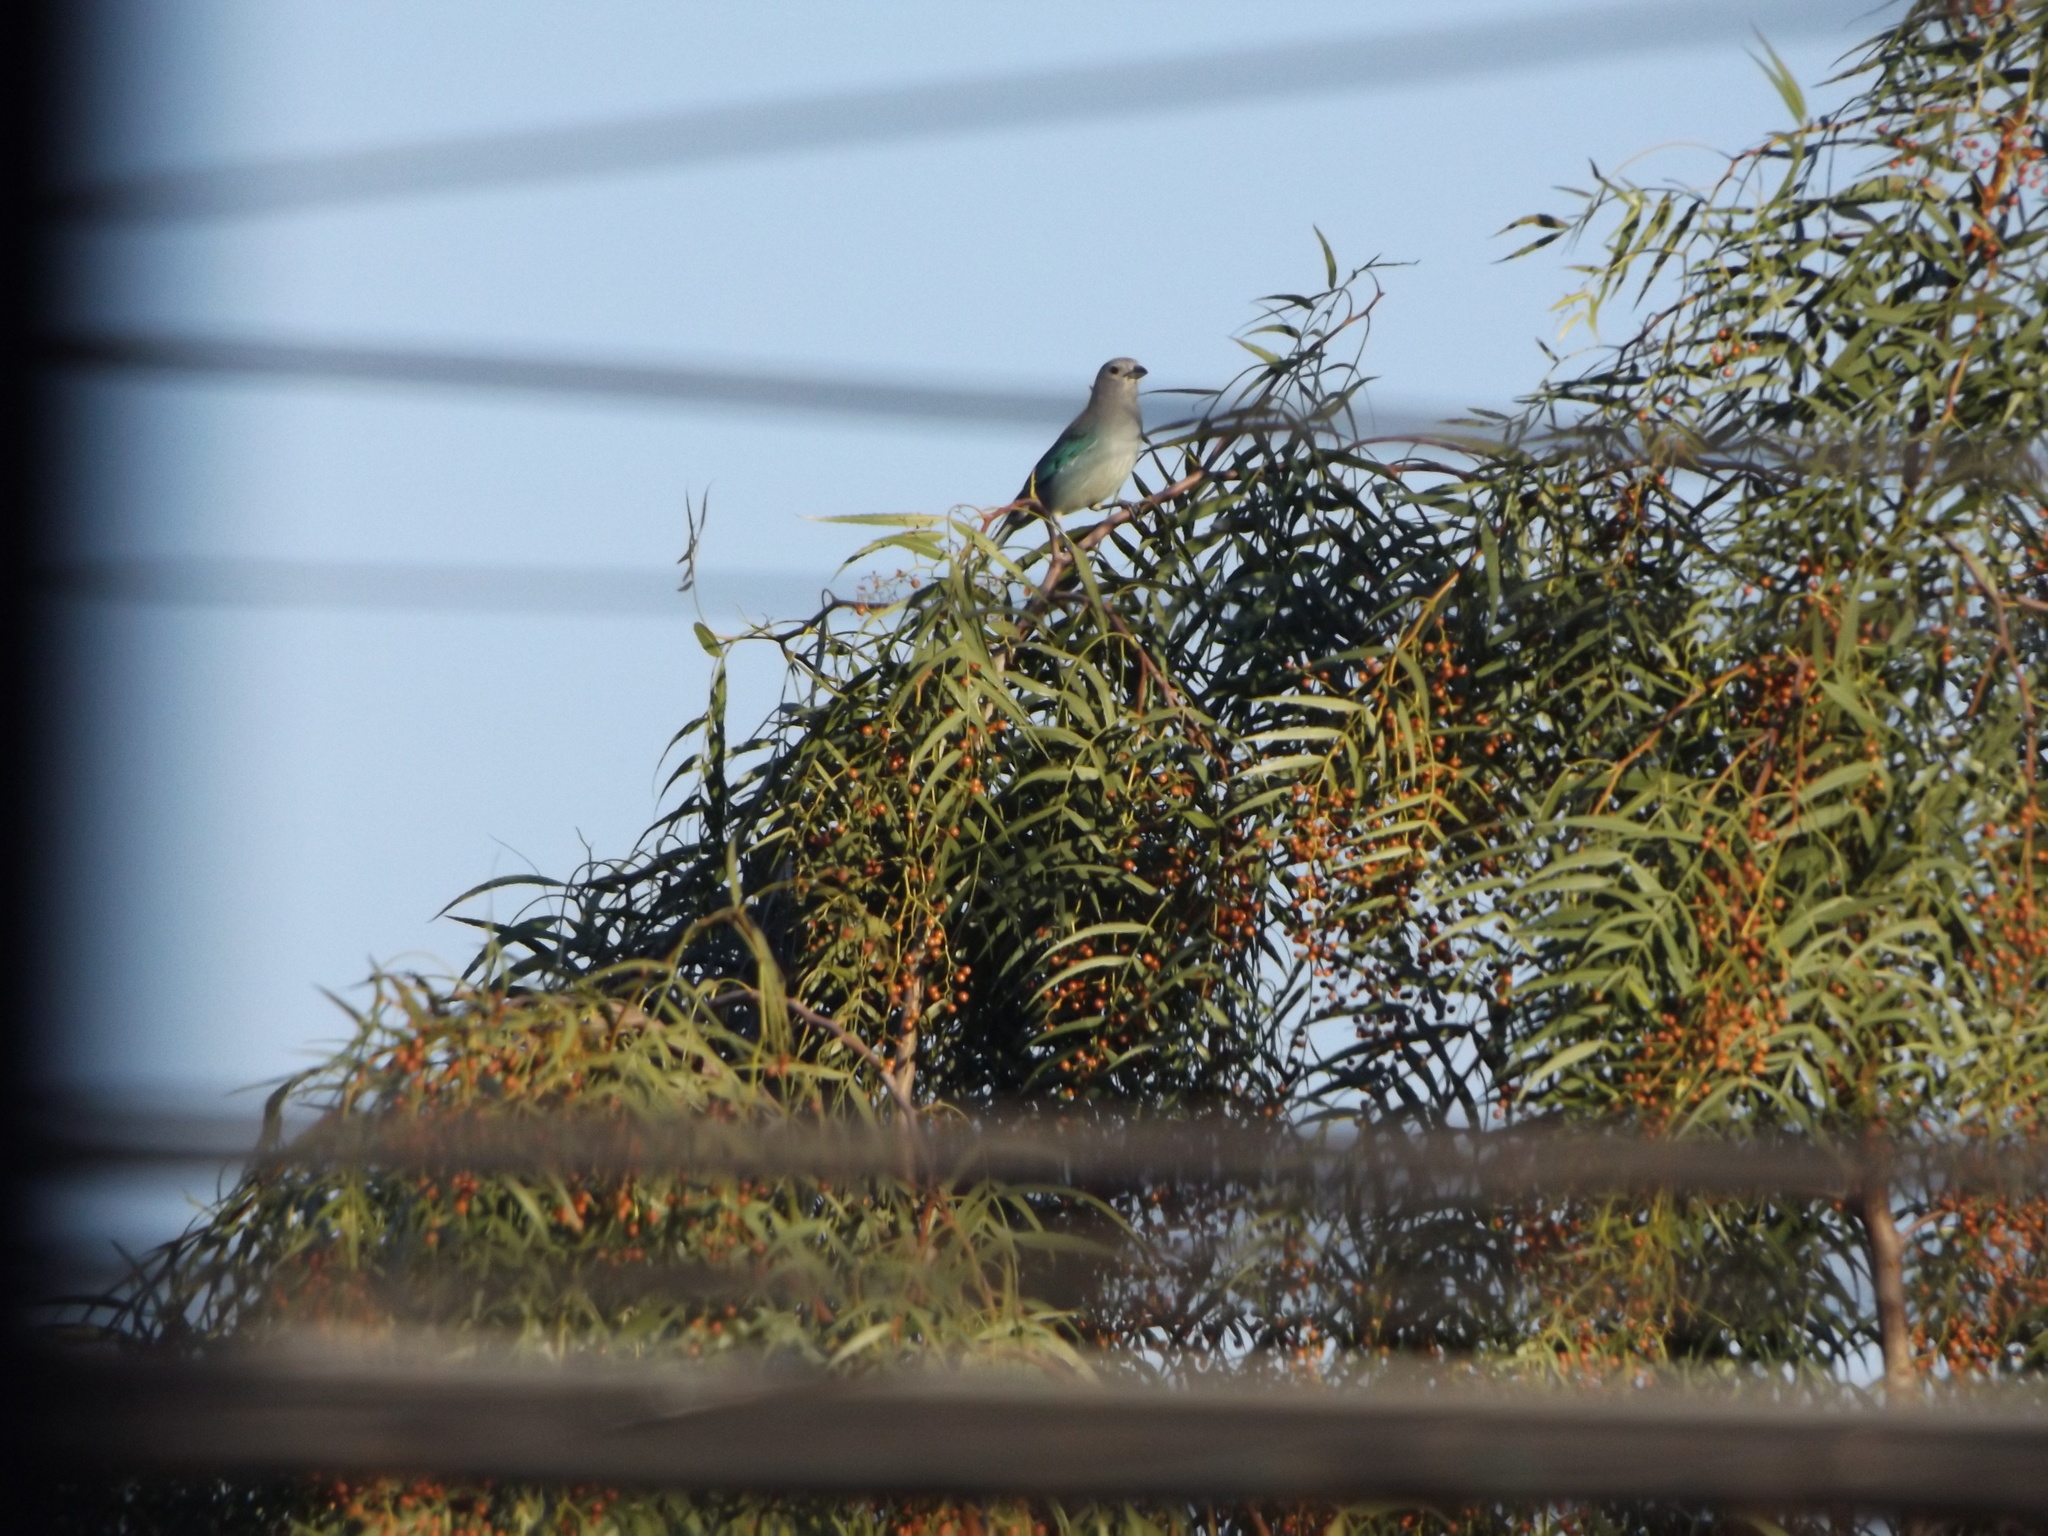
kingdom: Animalia
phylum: Chordata
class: Aves
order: Passeriformes
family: Thraupidae
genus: Thraupis
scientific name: Thraupis sayaca
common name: Sayaca tanager
